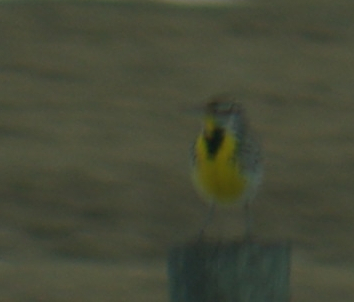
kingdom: Animalia
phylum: Chordata
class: Aves
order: Passeriformes
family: Icteridae
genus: Sturnella
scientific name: Sturnella neglecta
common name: Western meadowlark
